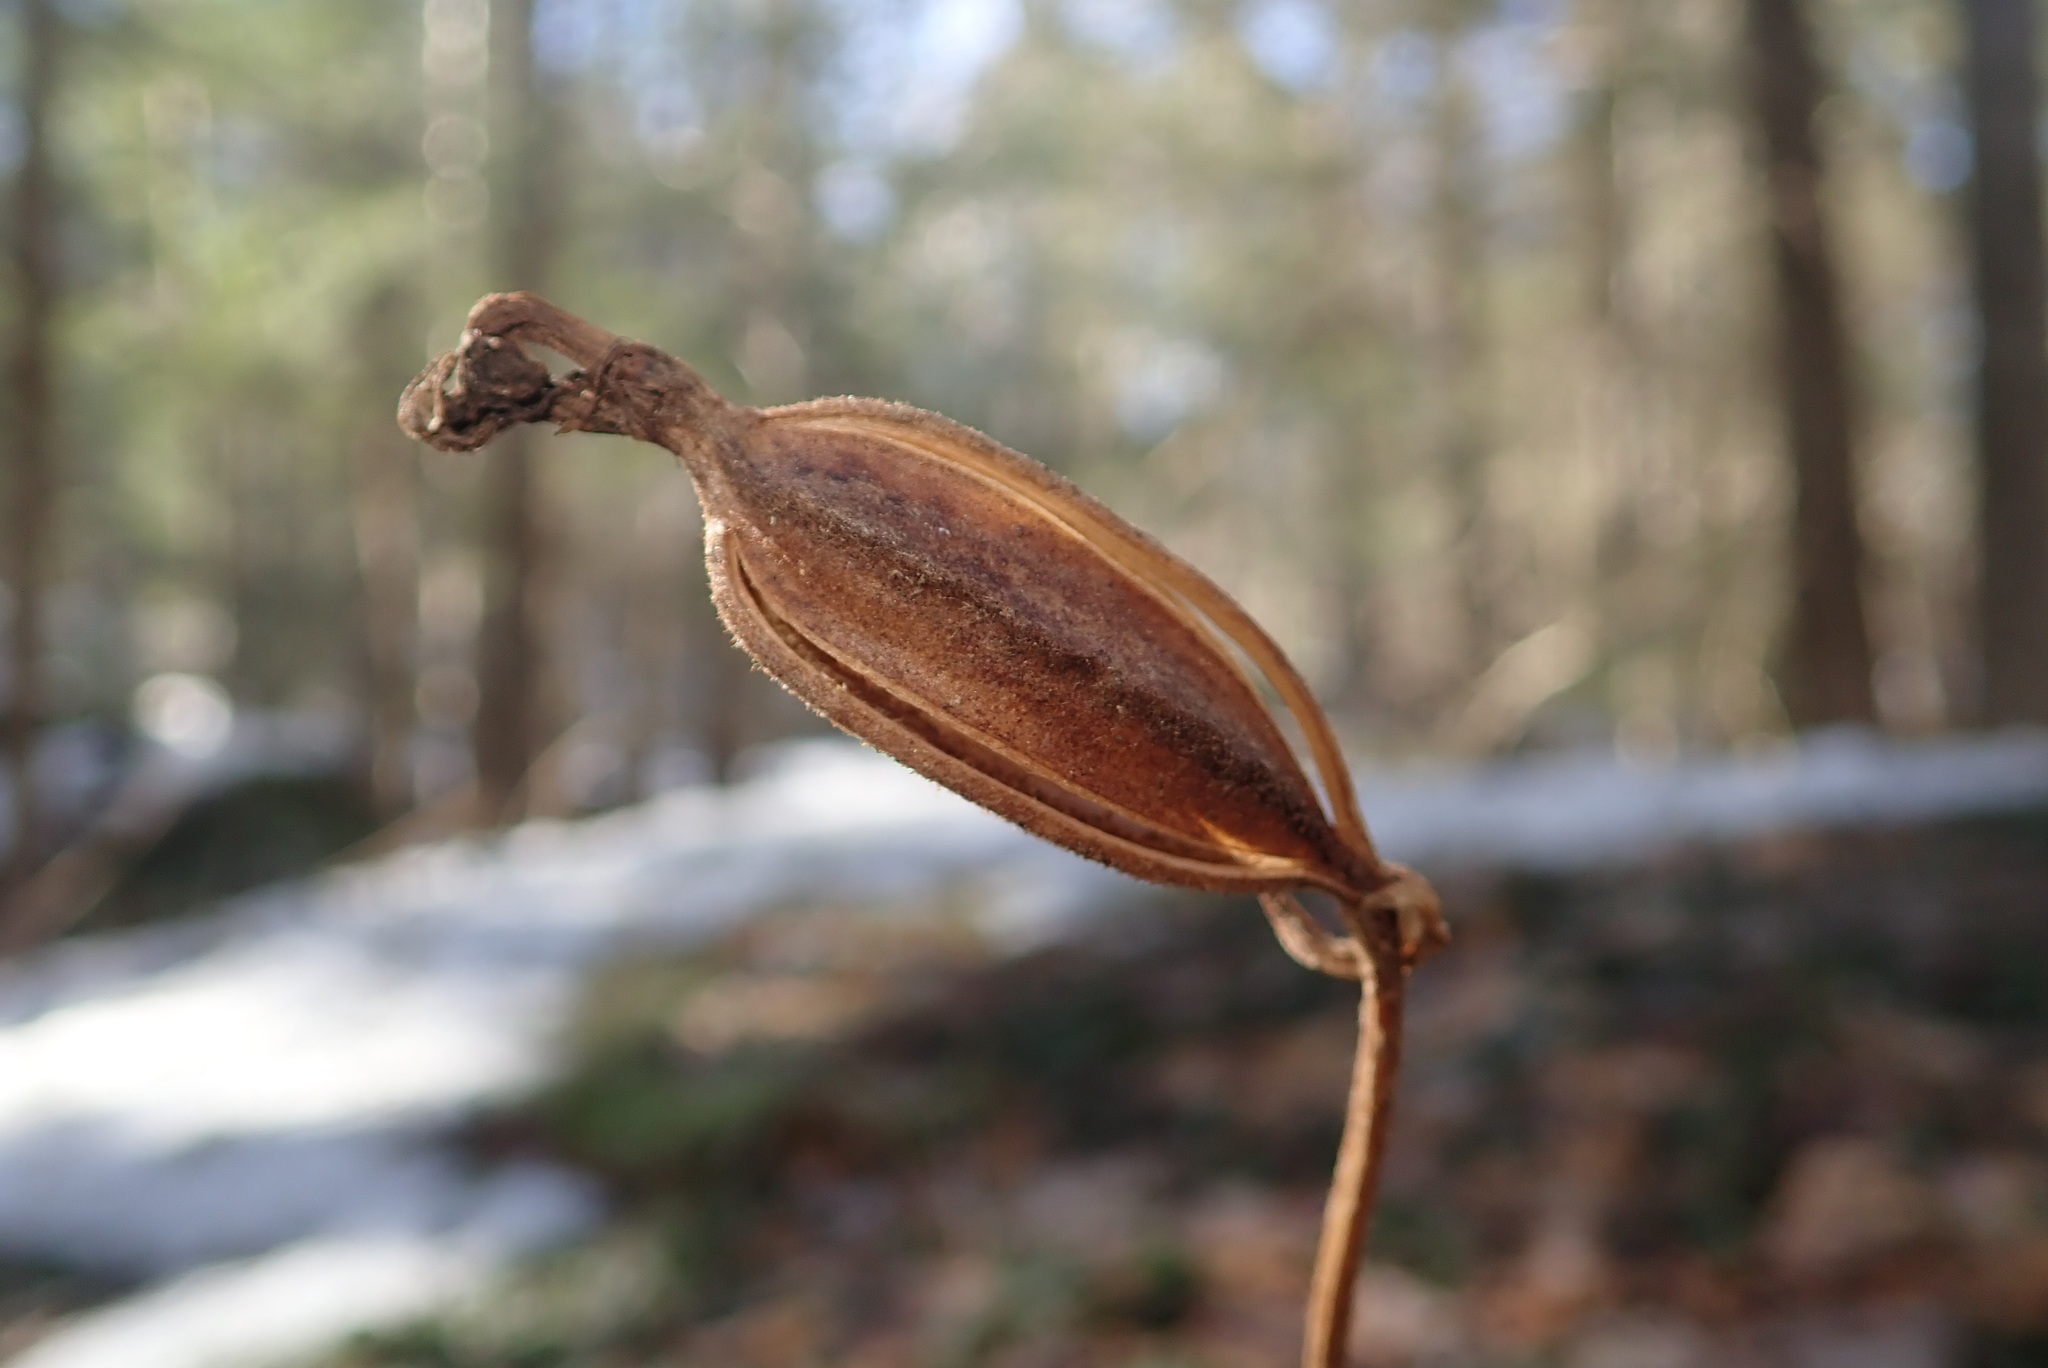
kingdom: Plantae
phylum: Tracheophyta
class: Liliopsida
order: Asparagales
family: Orchidaceae
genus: Cypripedium
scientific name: Cypripedium acaule
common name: Pink lady's-slipper
